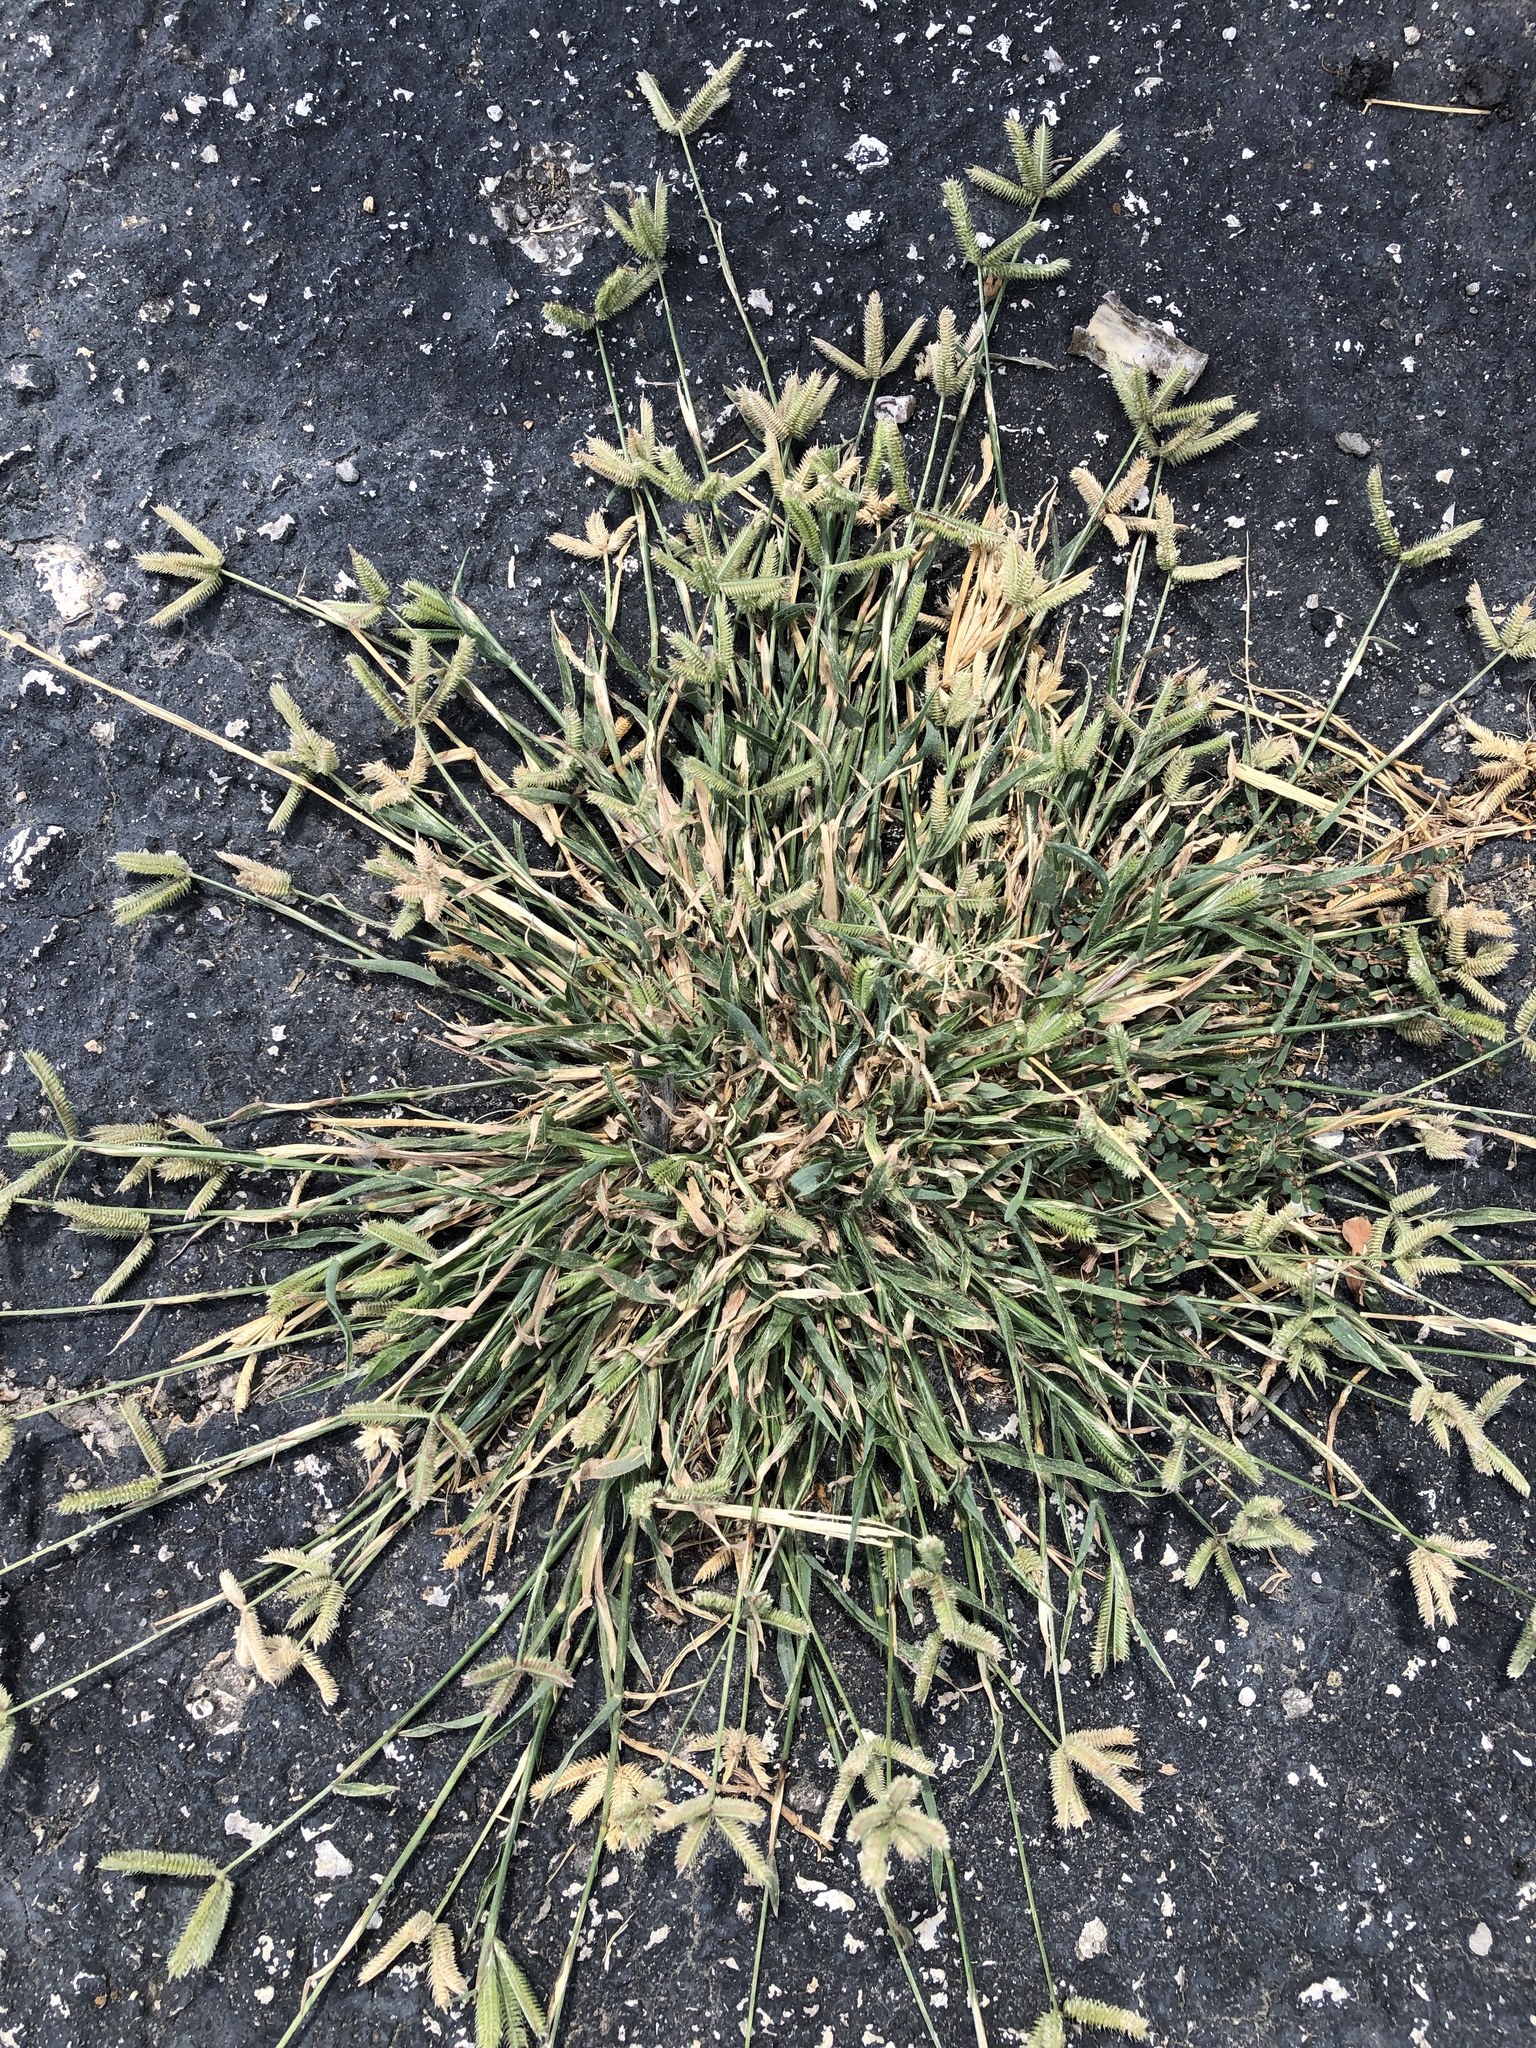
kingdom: Plantae
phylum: Tracheophyta
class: Liliopsida
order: Poales
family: Poaceae
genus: Dactyloctenium
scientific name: Dactyloctenium aegyptium
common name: Egyptian grass
